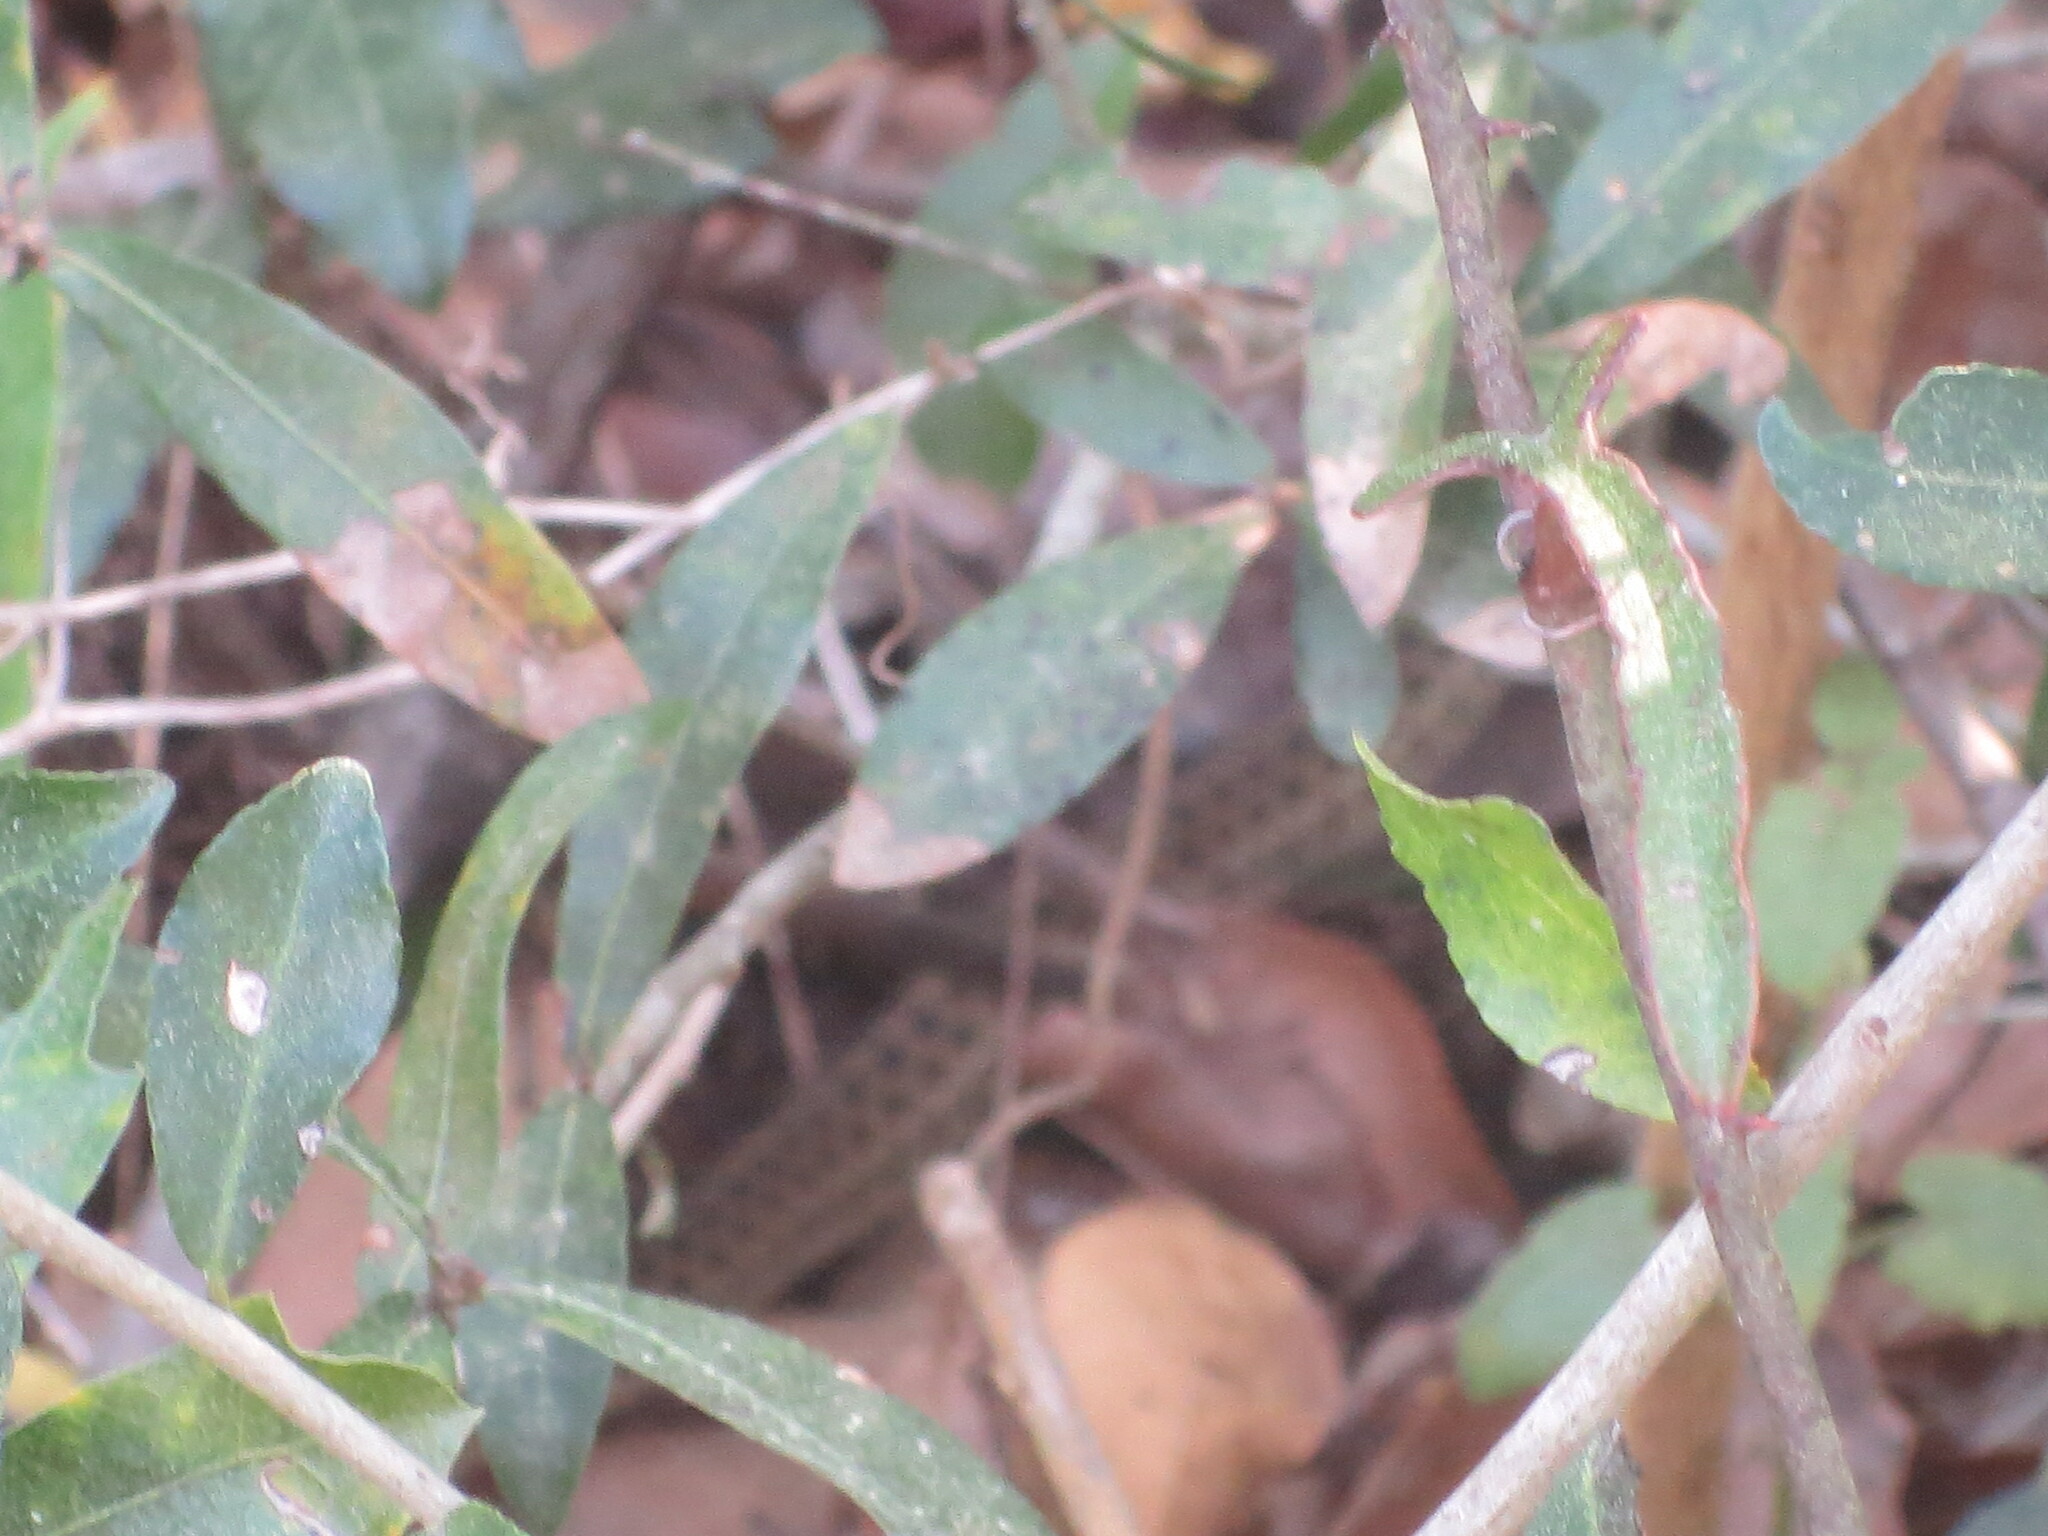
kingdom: Animalia
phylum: Chordata
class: Squamata
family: Colubridae
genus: Thamnophis
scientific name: Thamnophis sirtalis
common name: Common garter snake
